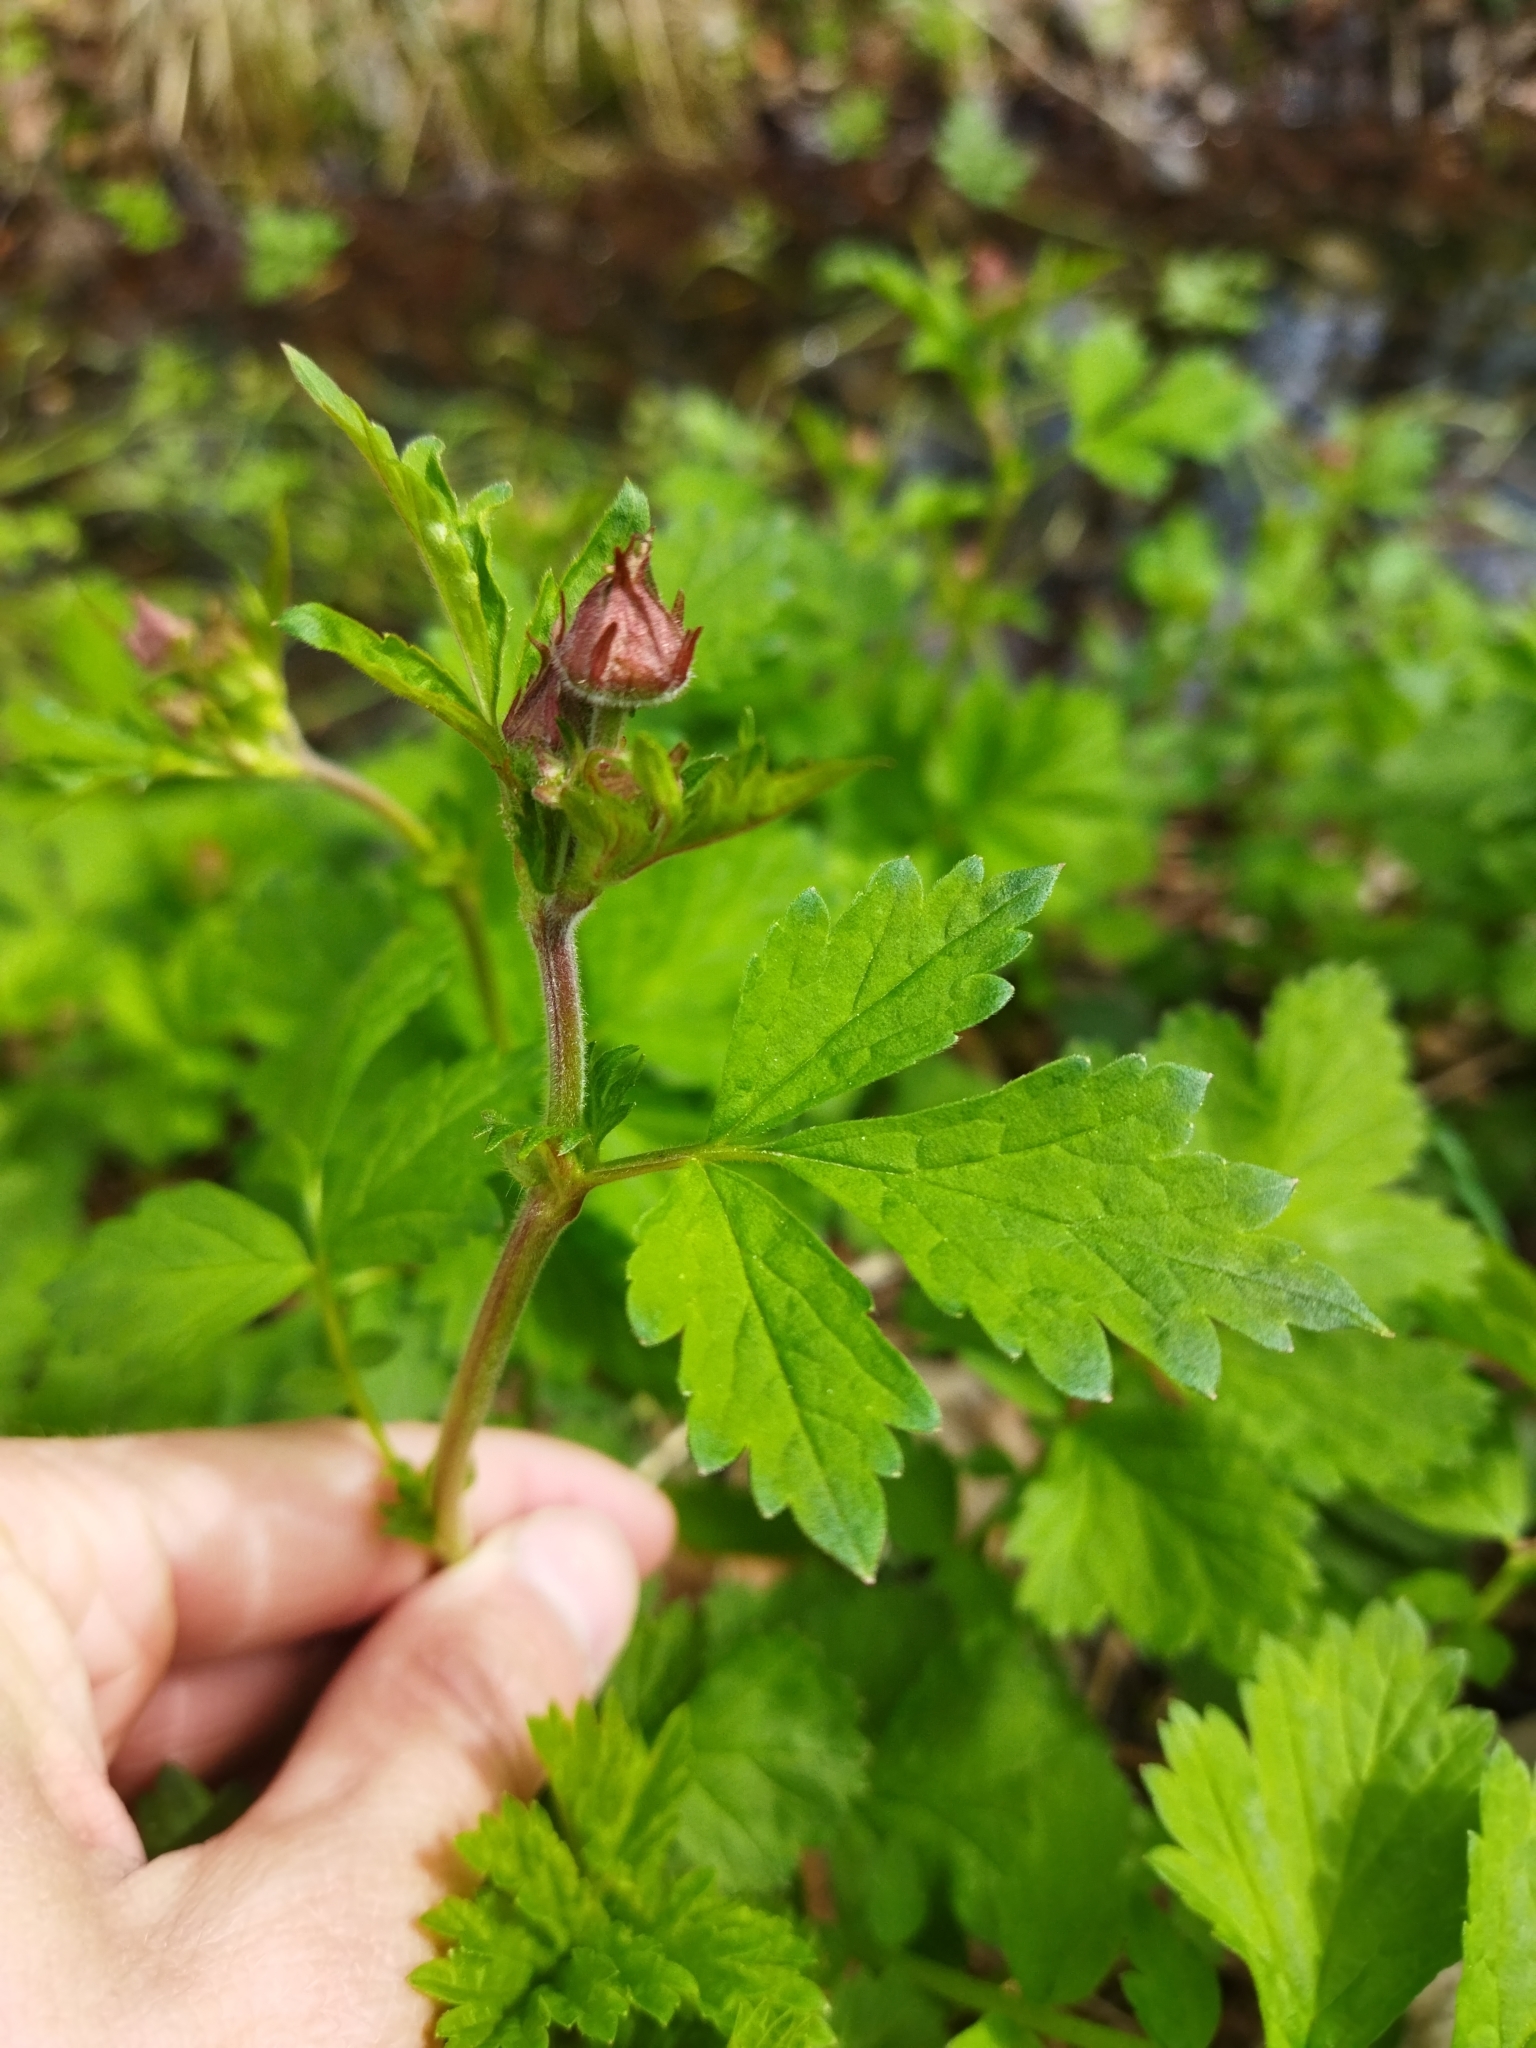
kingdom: Plantae
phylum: Tracheophyta
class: Magnoliopsida
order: Rosales
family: Rosaceae
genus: Geum
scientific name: Geum rivale
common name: Water avens
